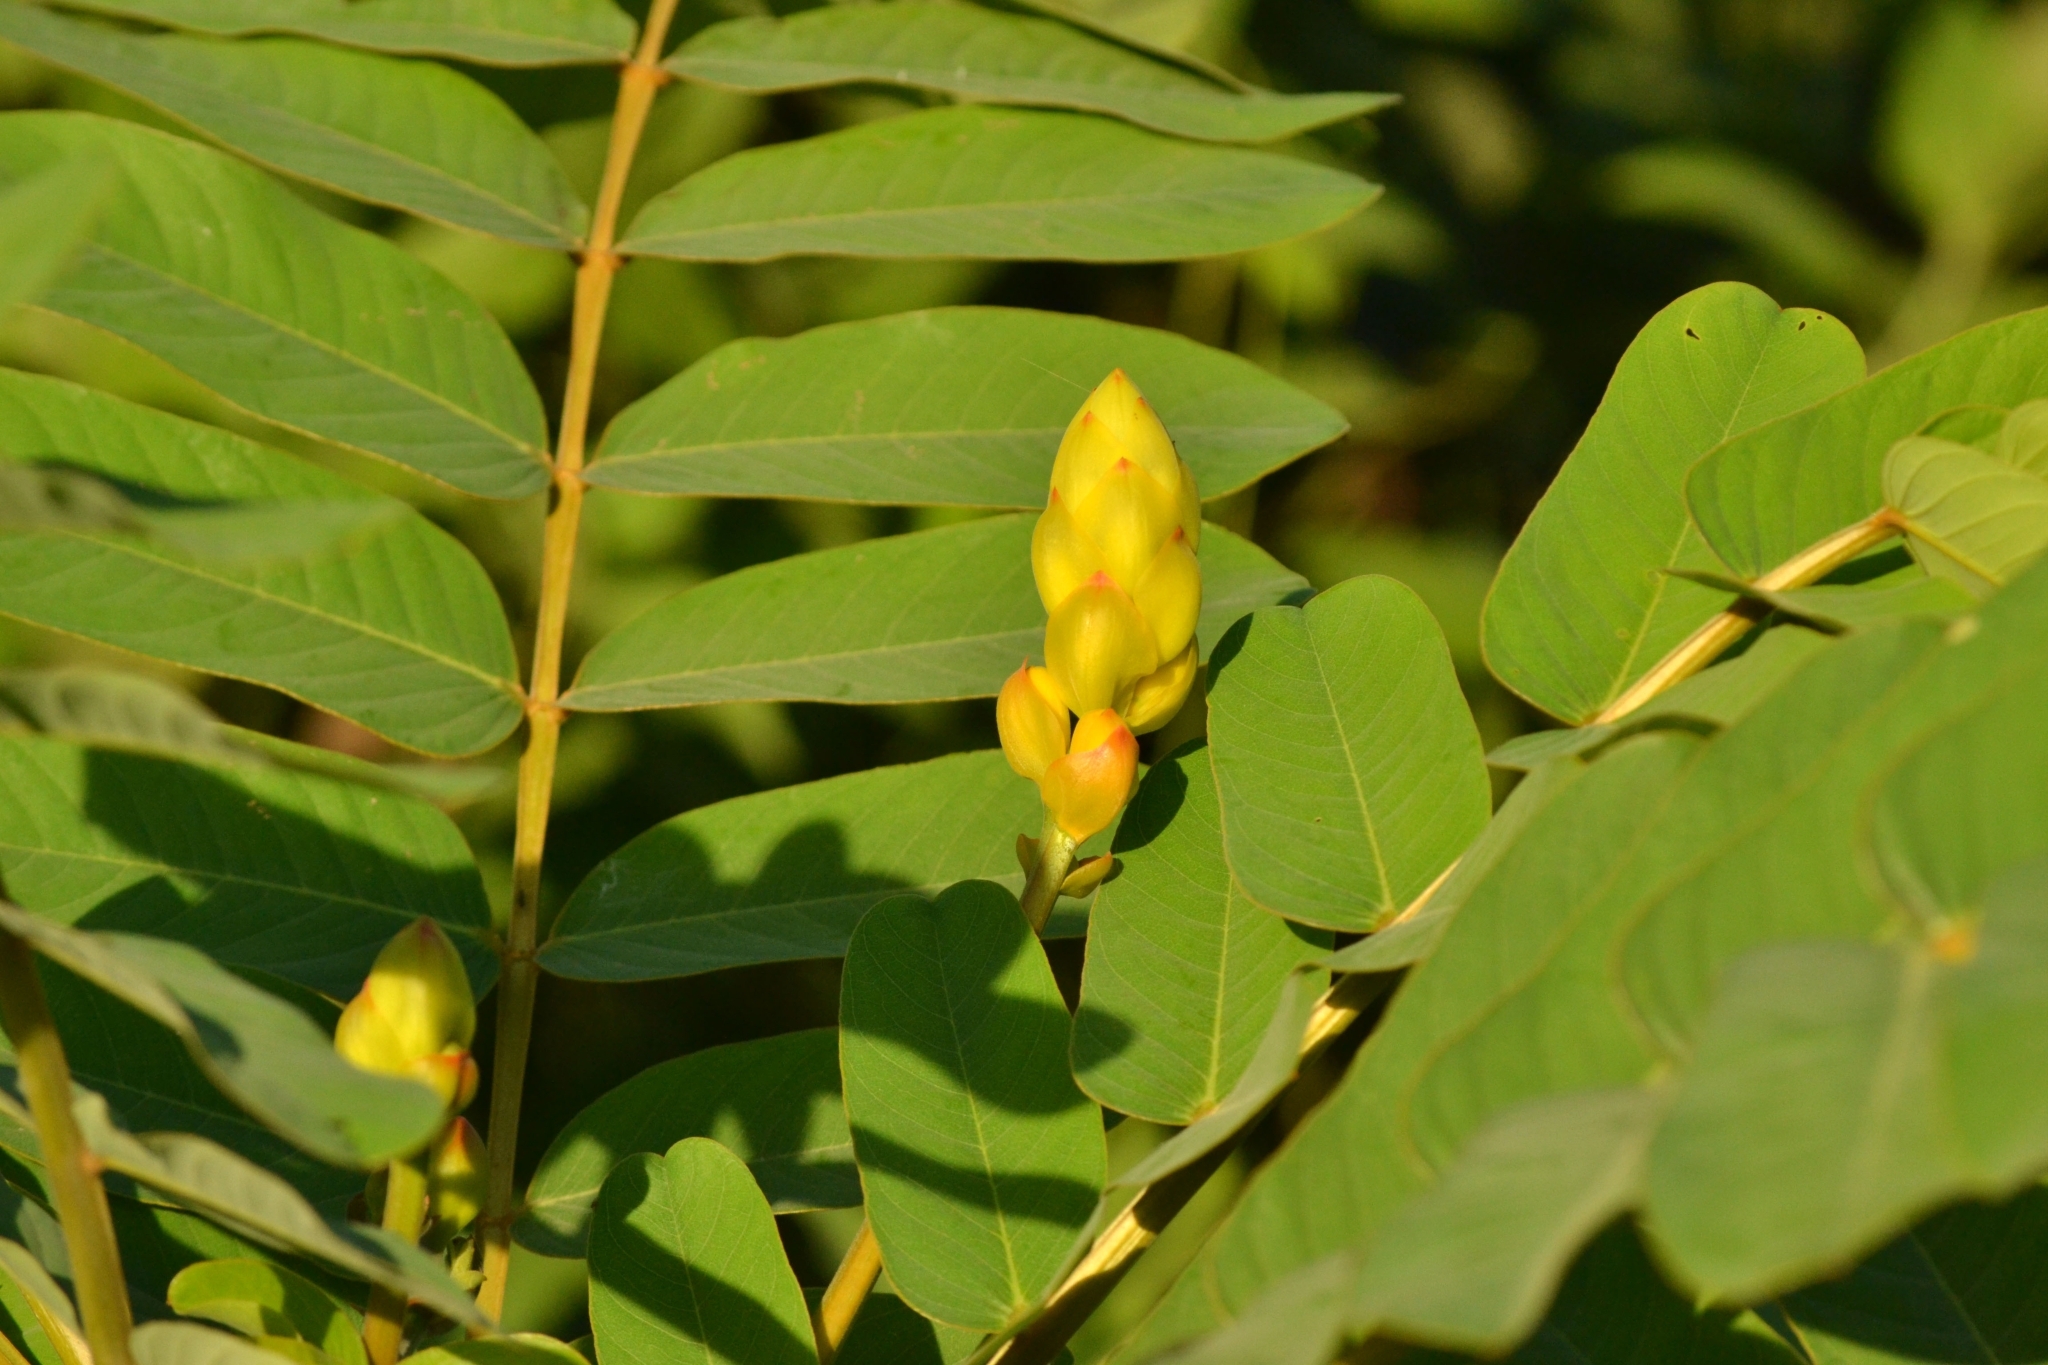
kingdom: Plantae
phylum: Tracheophyta
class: Magnoliopsida
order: Fabales
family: Fabaceae
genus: Senna
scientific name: Senna alata
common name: Emperor's candlesticks
